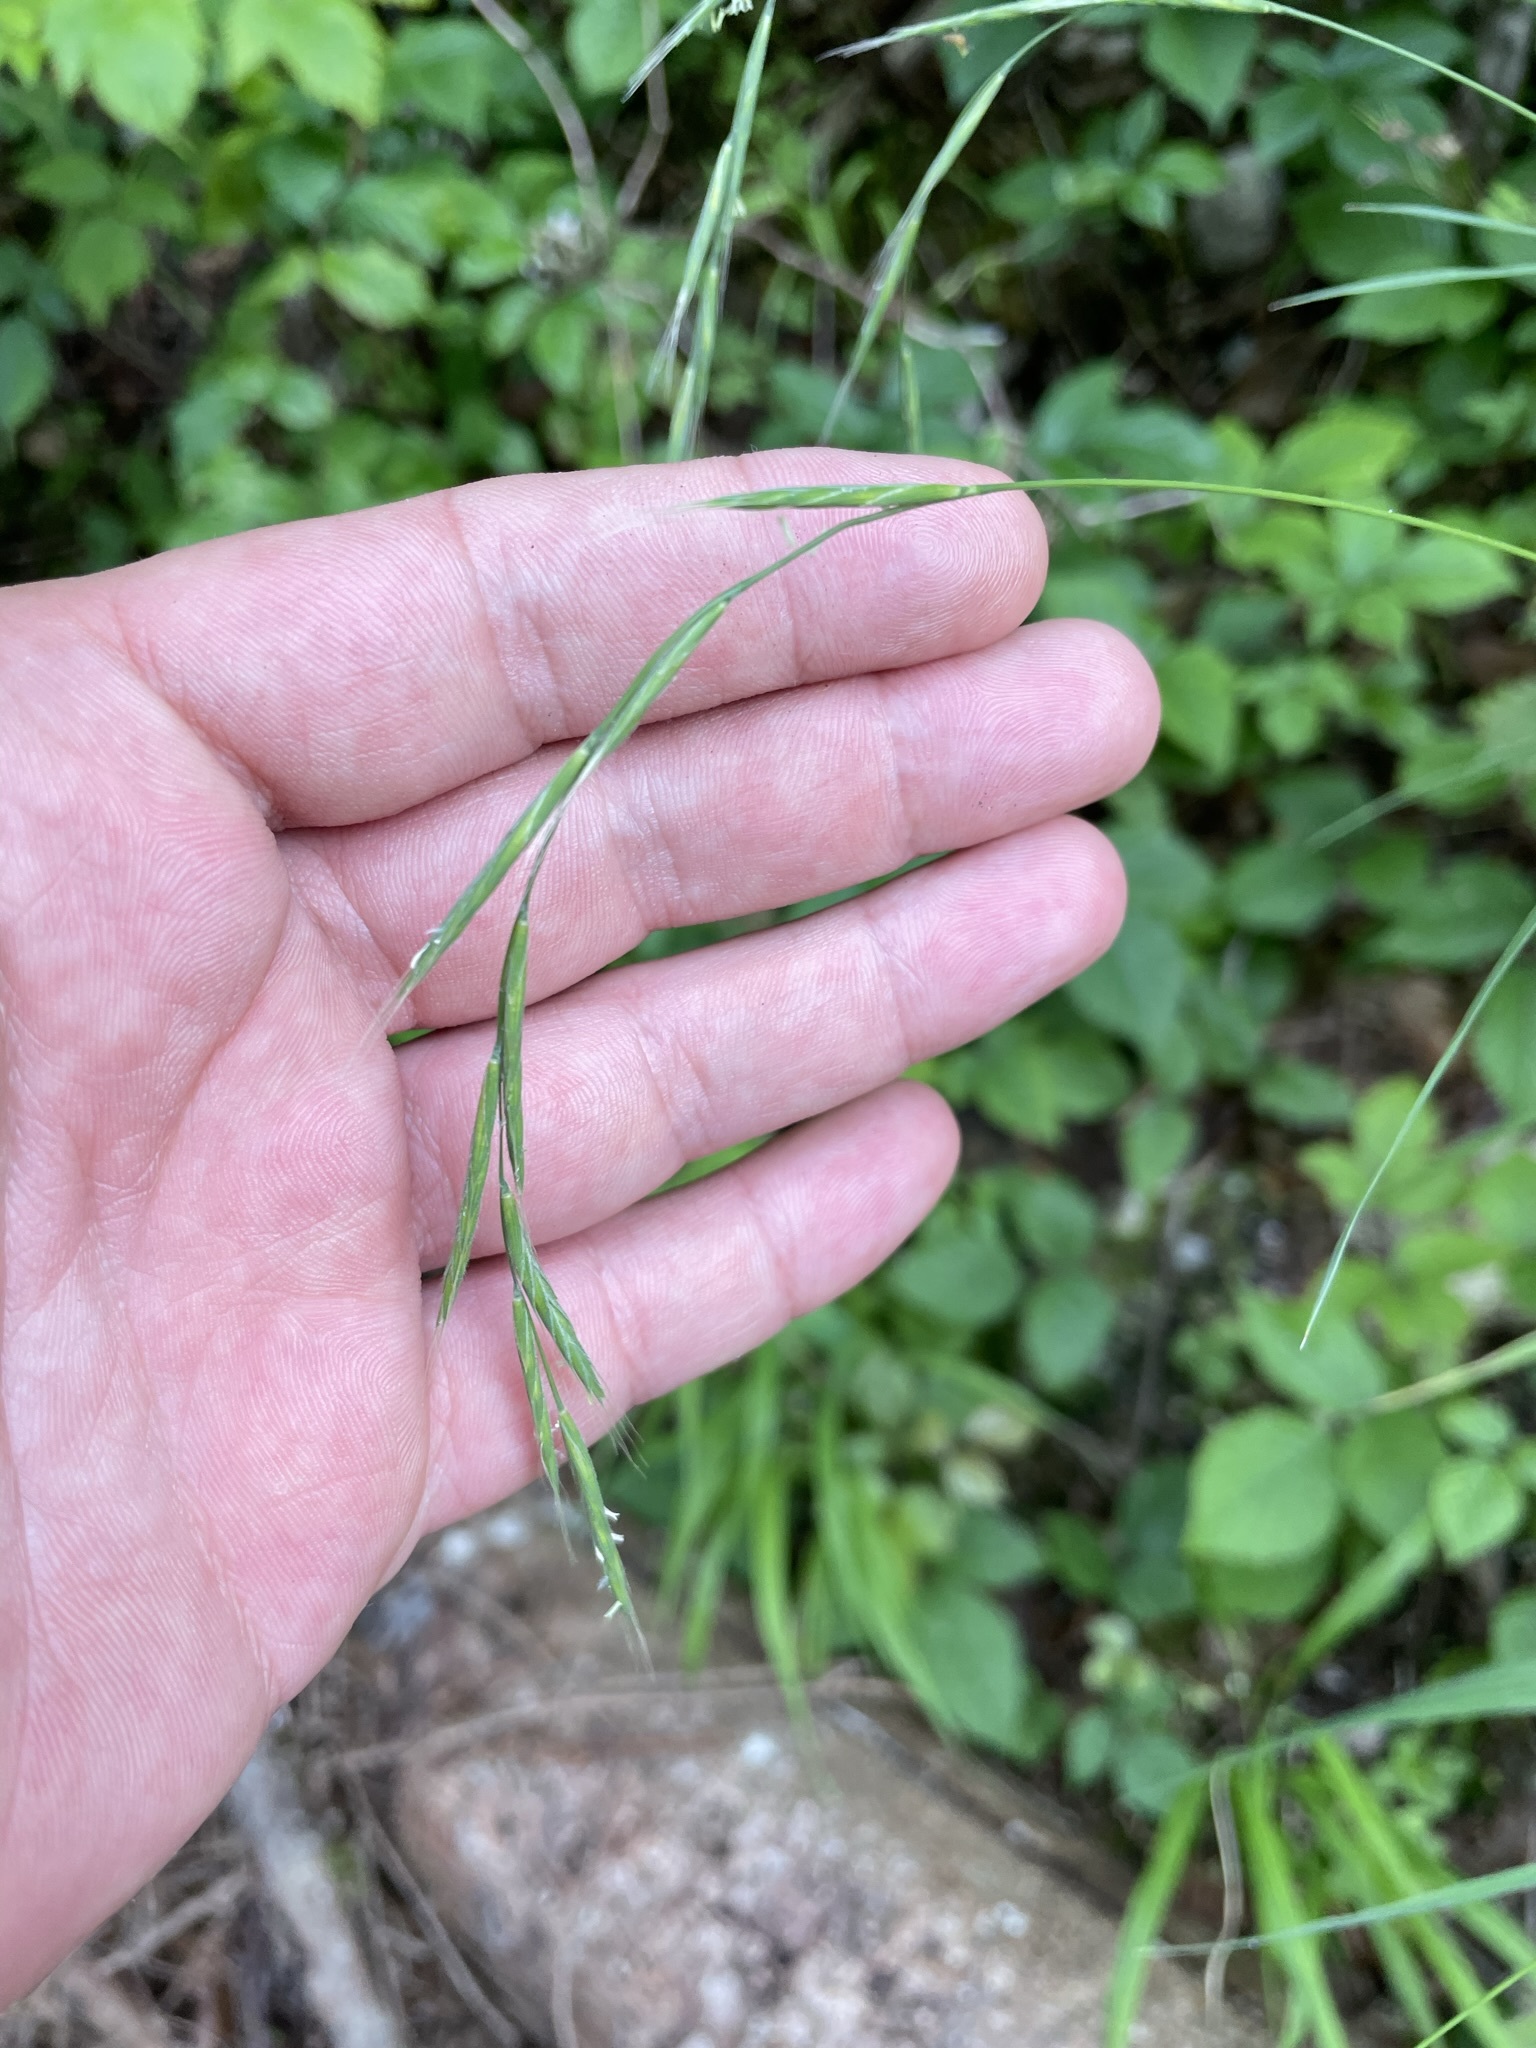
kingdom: Plantae
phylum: Tracheophyta
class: Liliopsida
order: Poales
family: Poaceae
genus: Brachypodium
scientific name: Brachypodium sylvaticum
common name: False-brome
